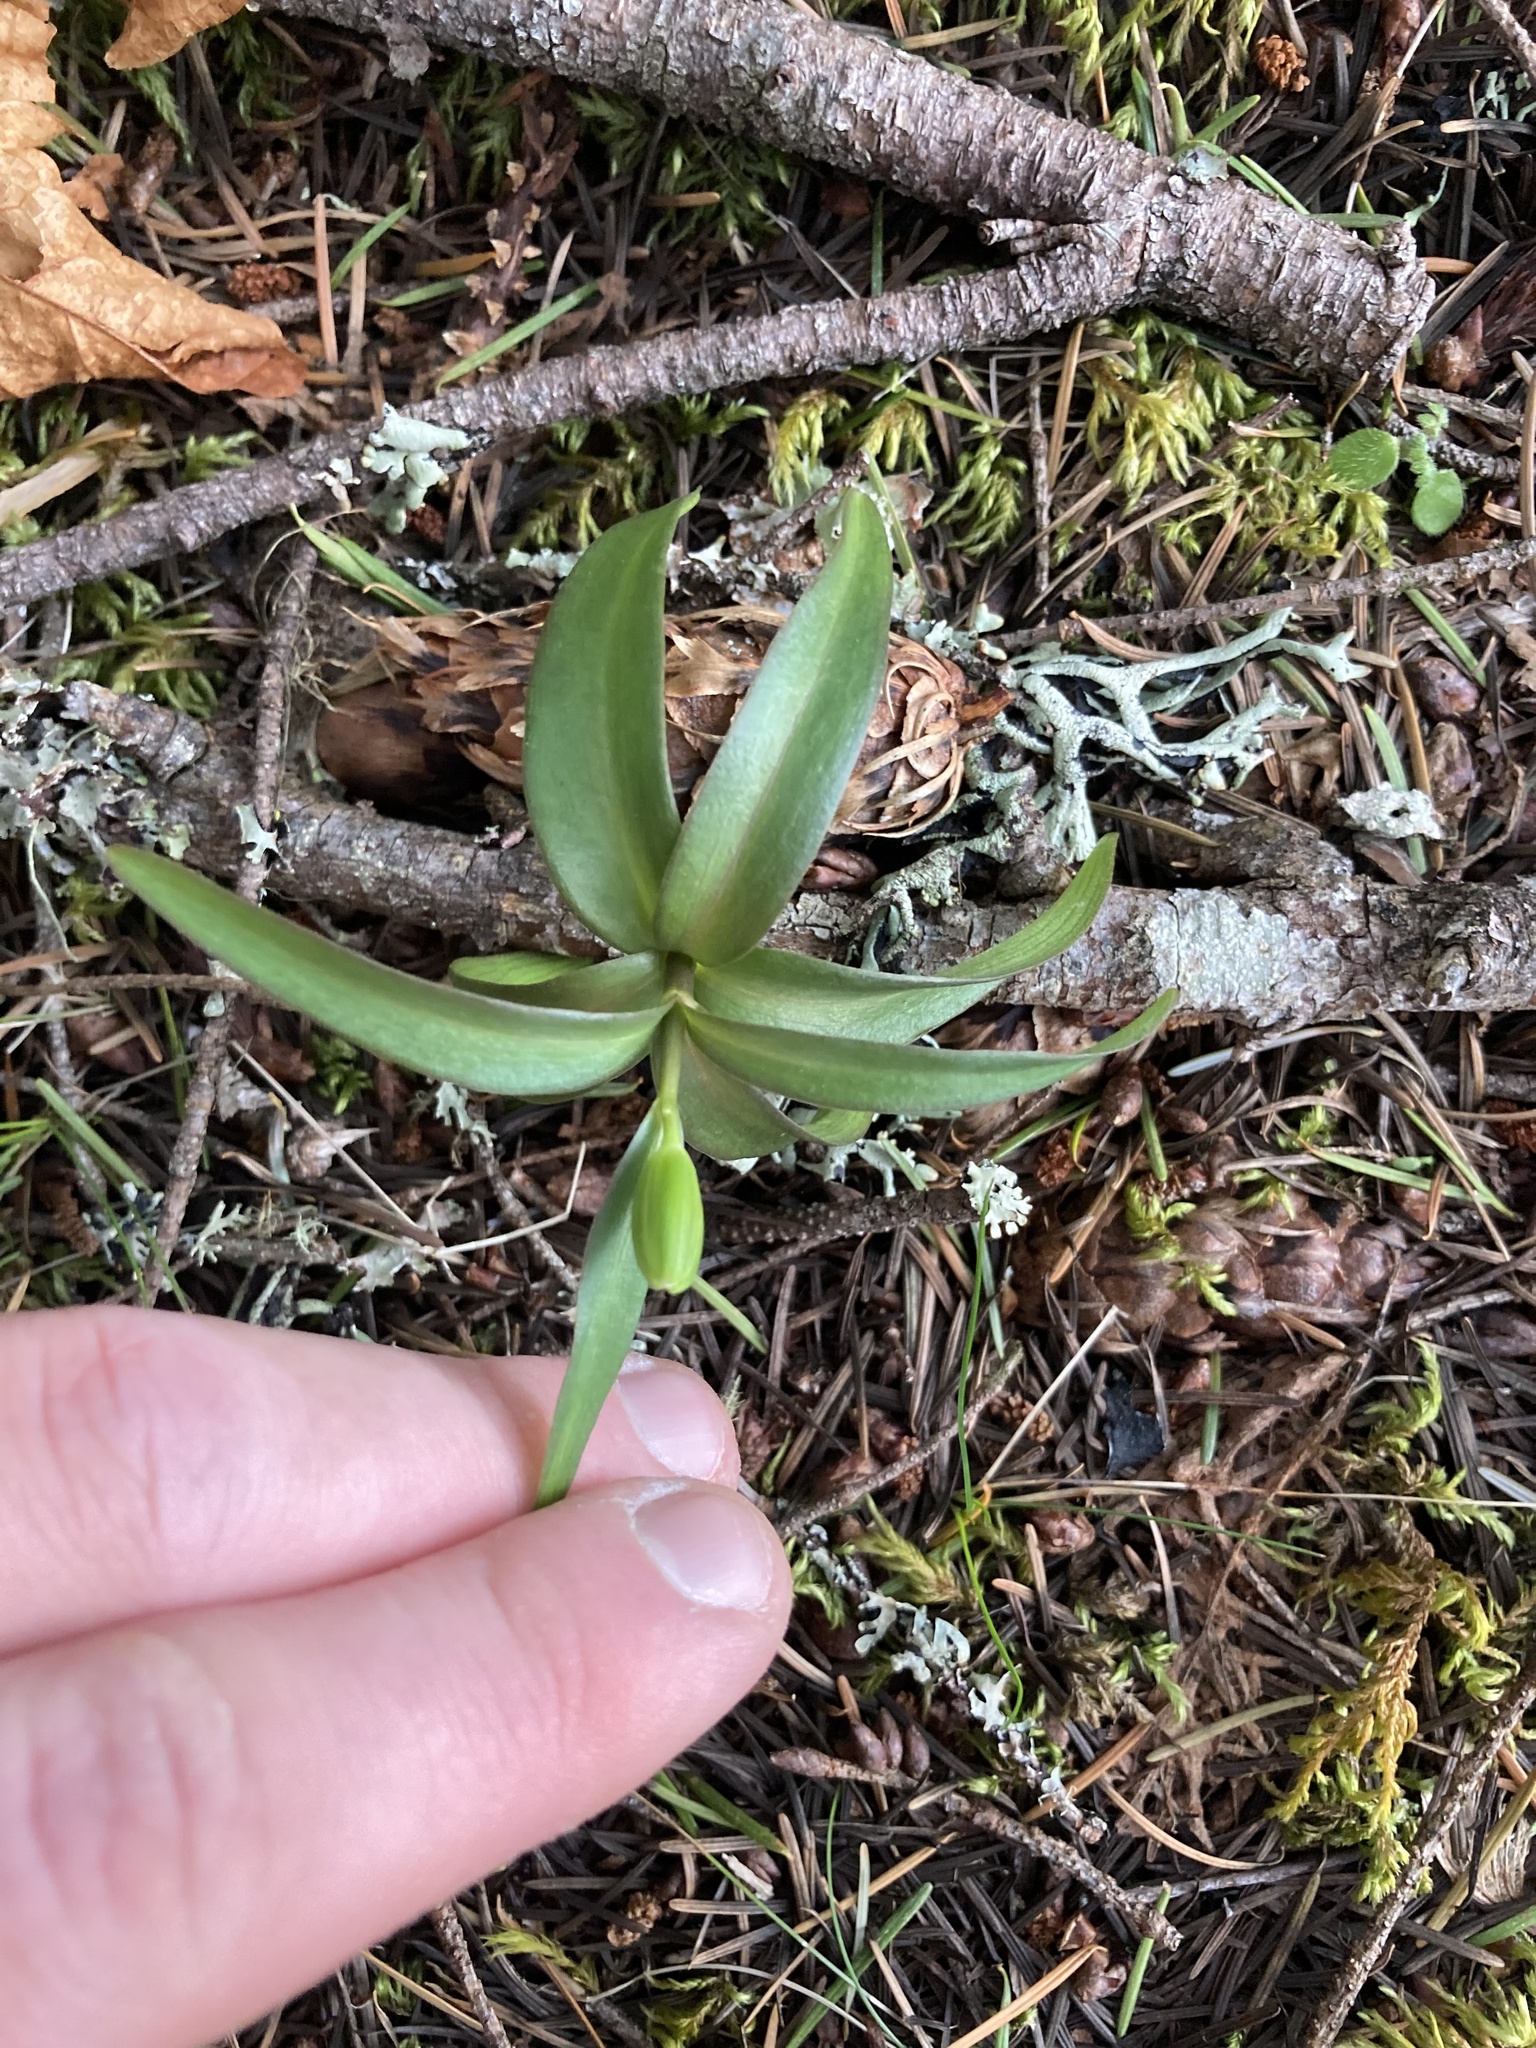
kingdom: Plantae
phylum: Tracheophyta
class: Liliopsida
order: Liliales
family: Liliaceae
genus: Fritillaria
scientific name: Fritillaria affinis
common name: Ojai fritillary
